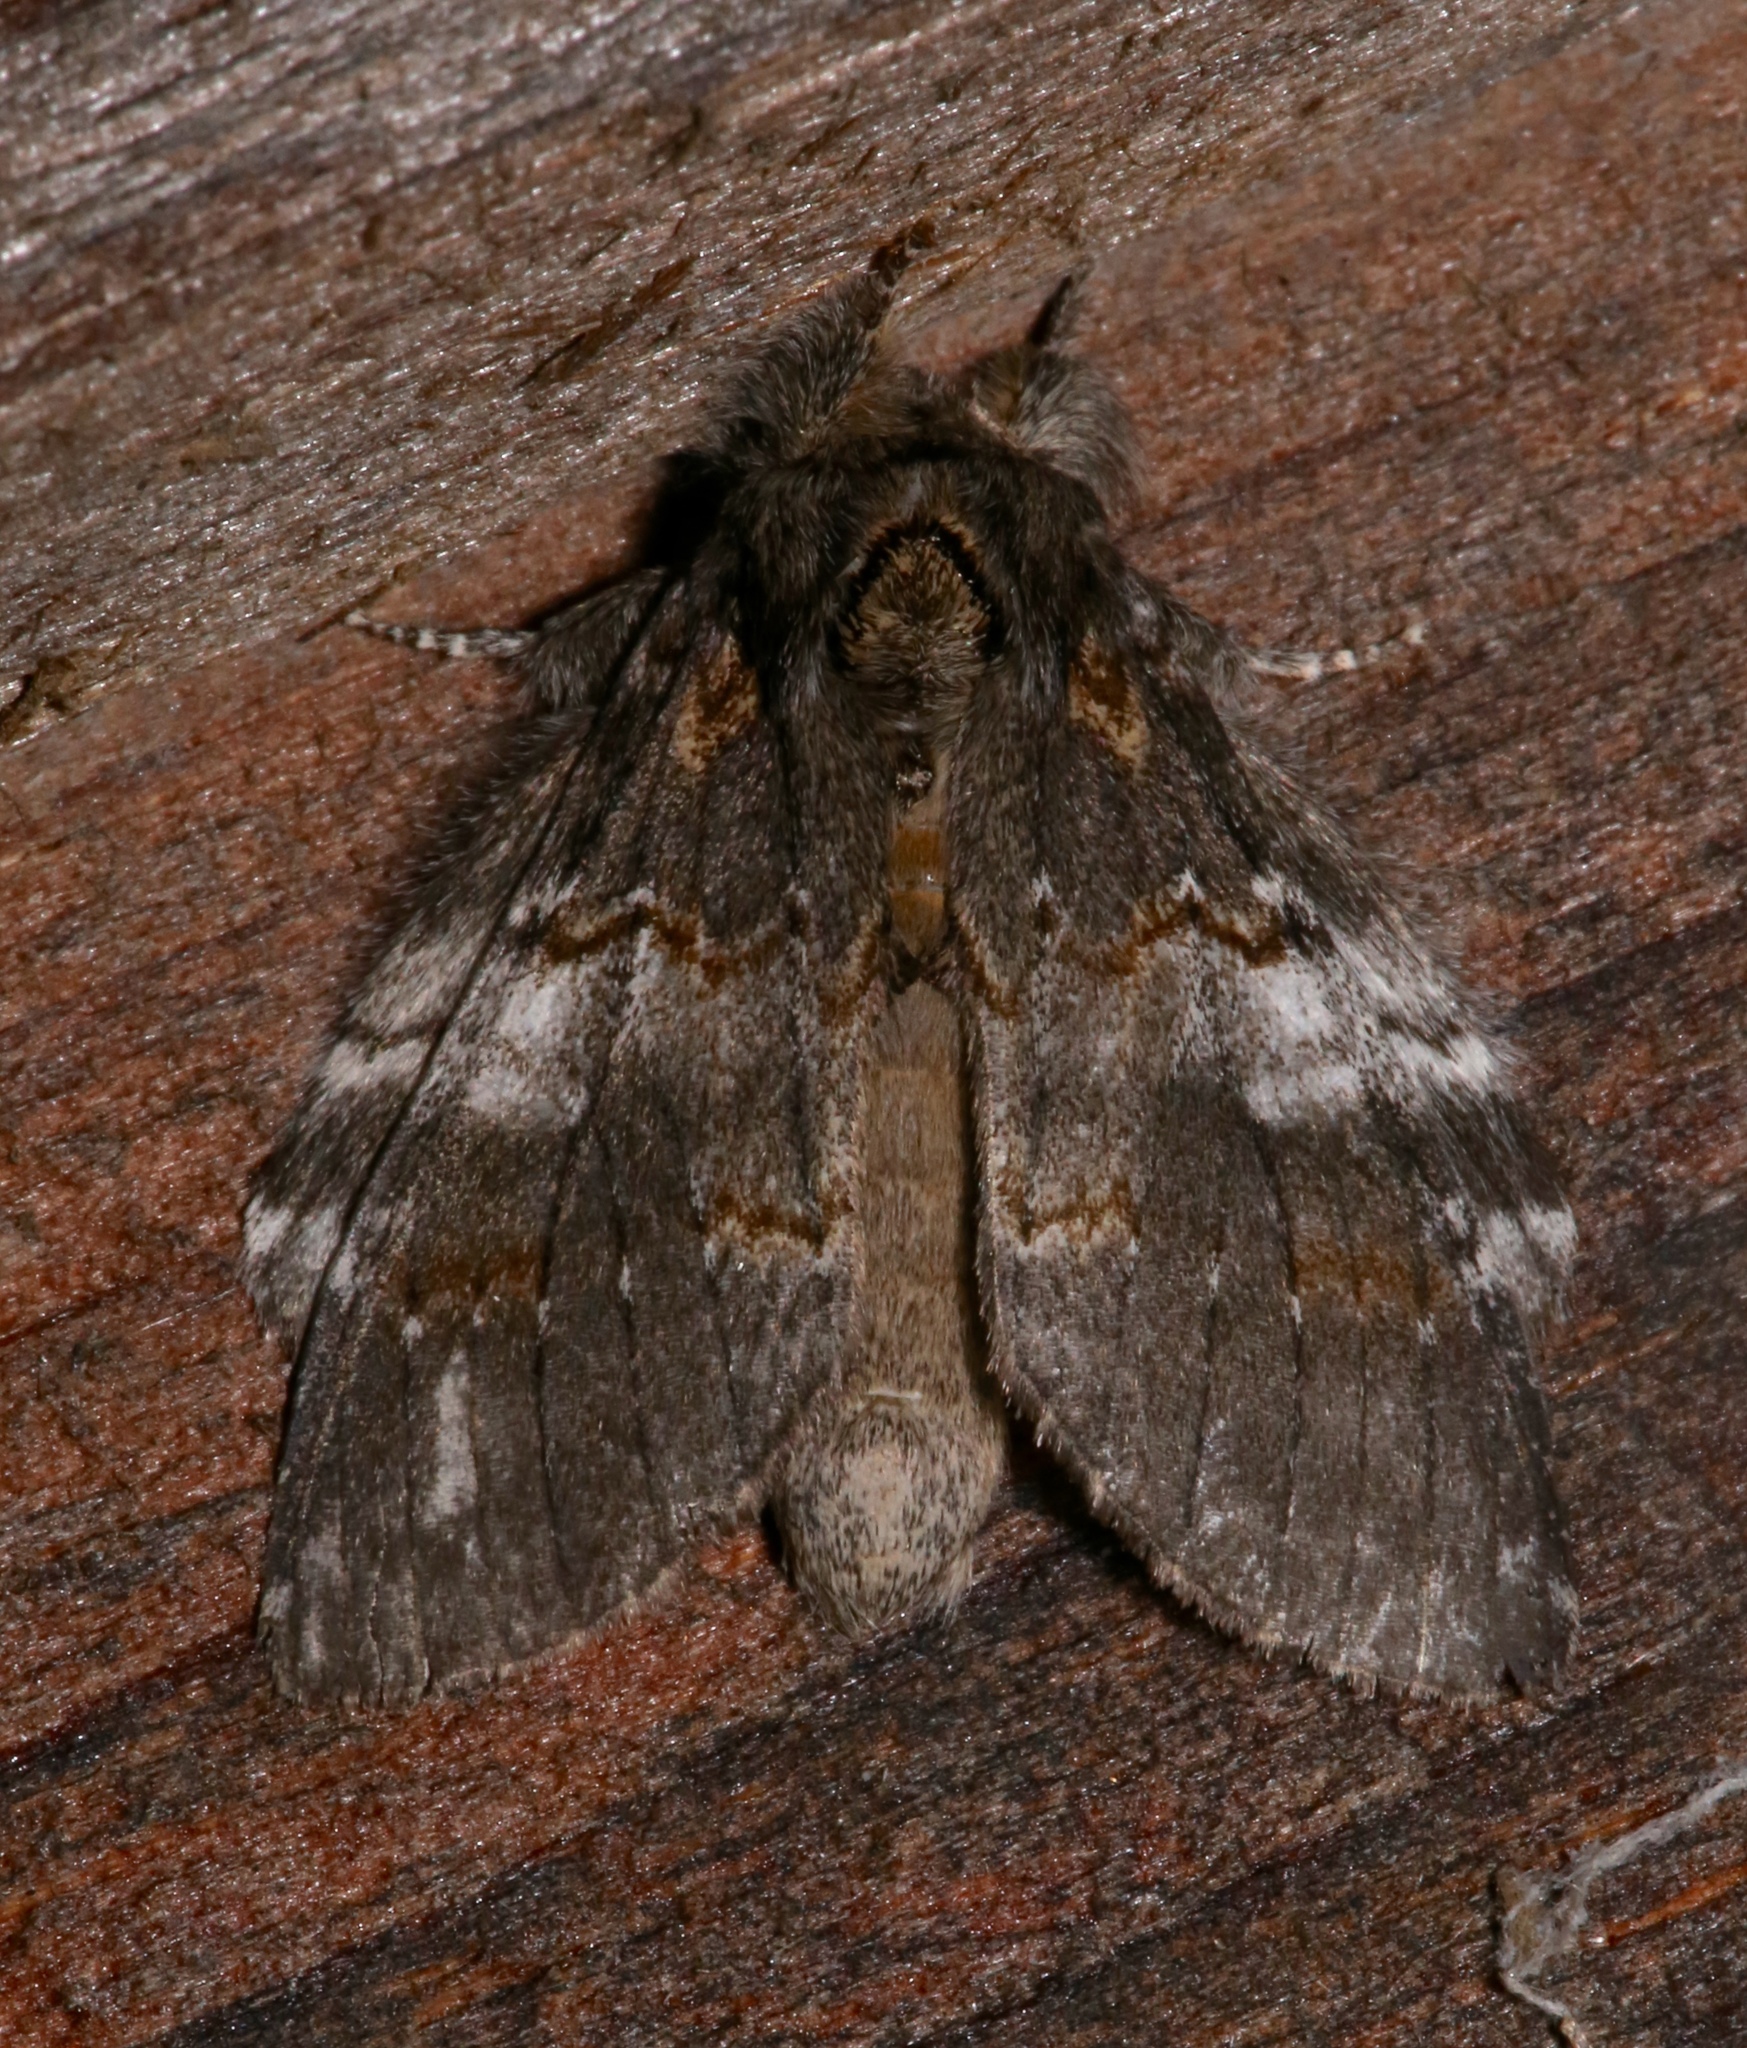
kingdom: Animalia
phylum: Arthropoda
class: Insecta
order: Lepidoptera
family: Notodontidae
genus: Peridea
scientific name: Peridea ferruginea
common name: Chocolate prominent
